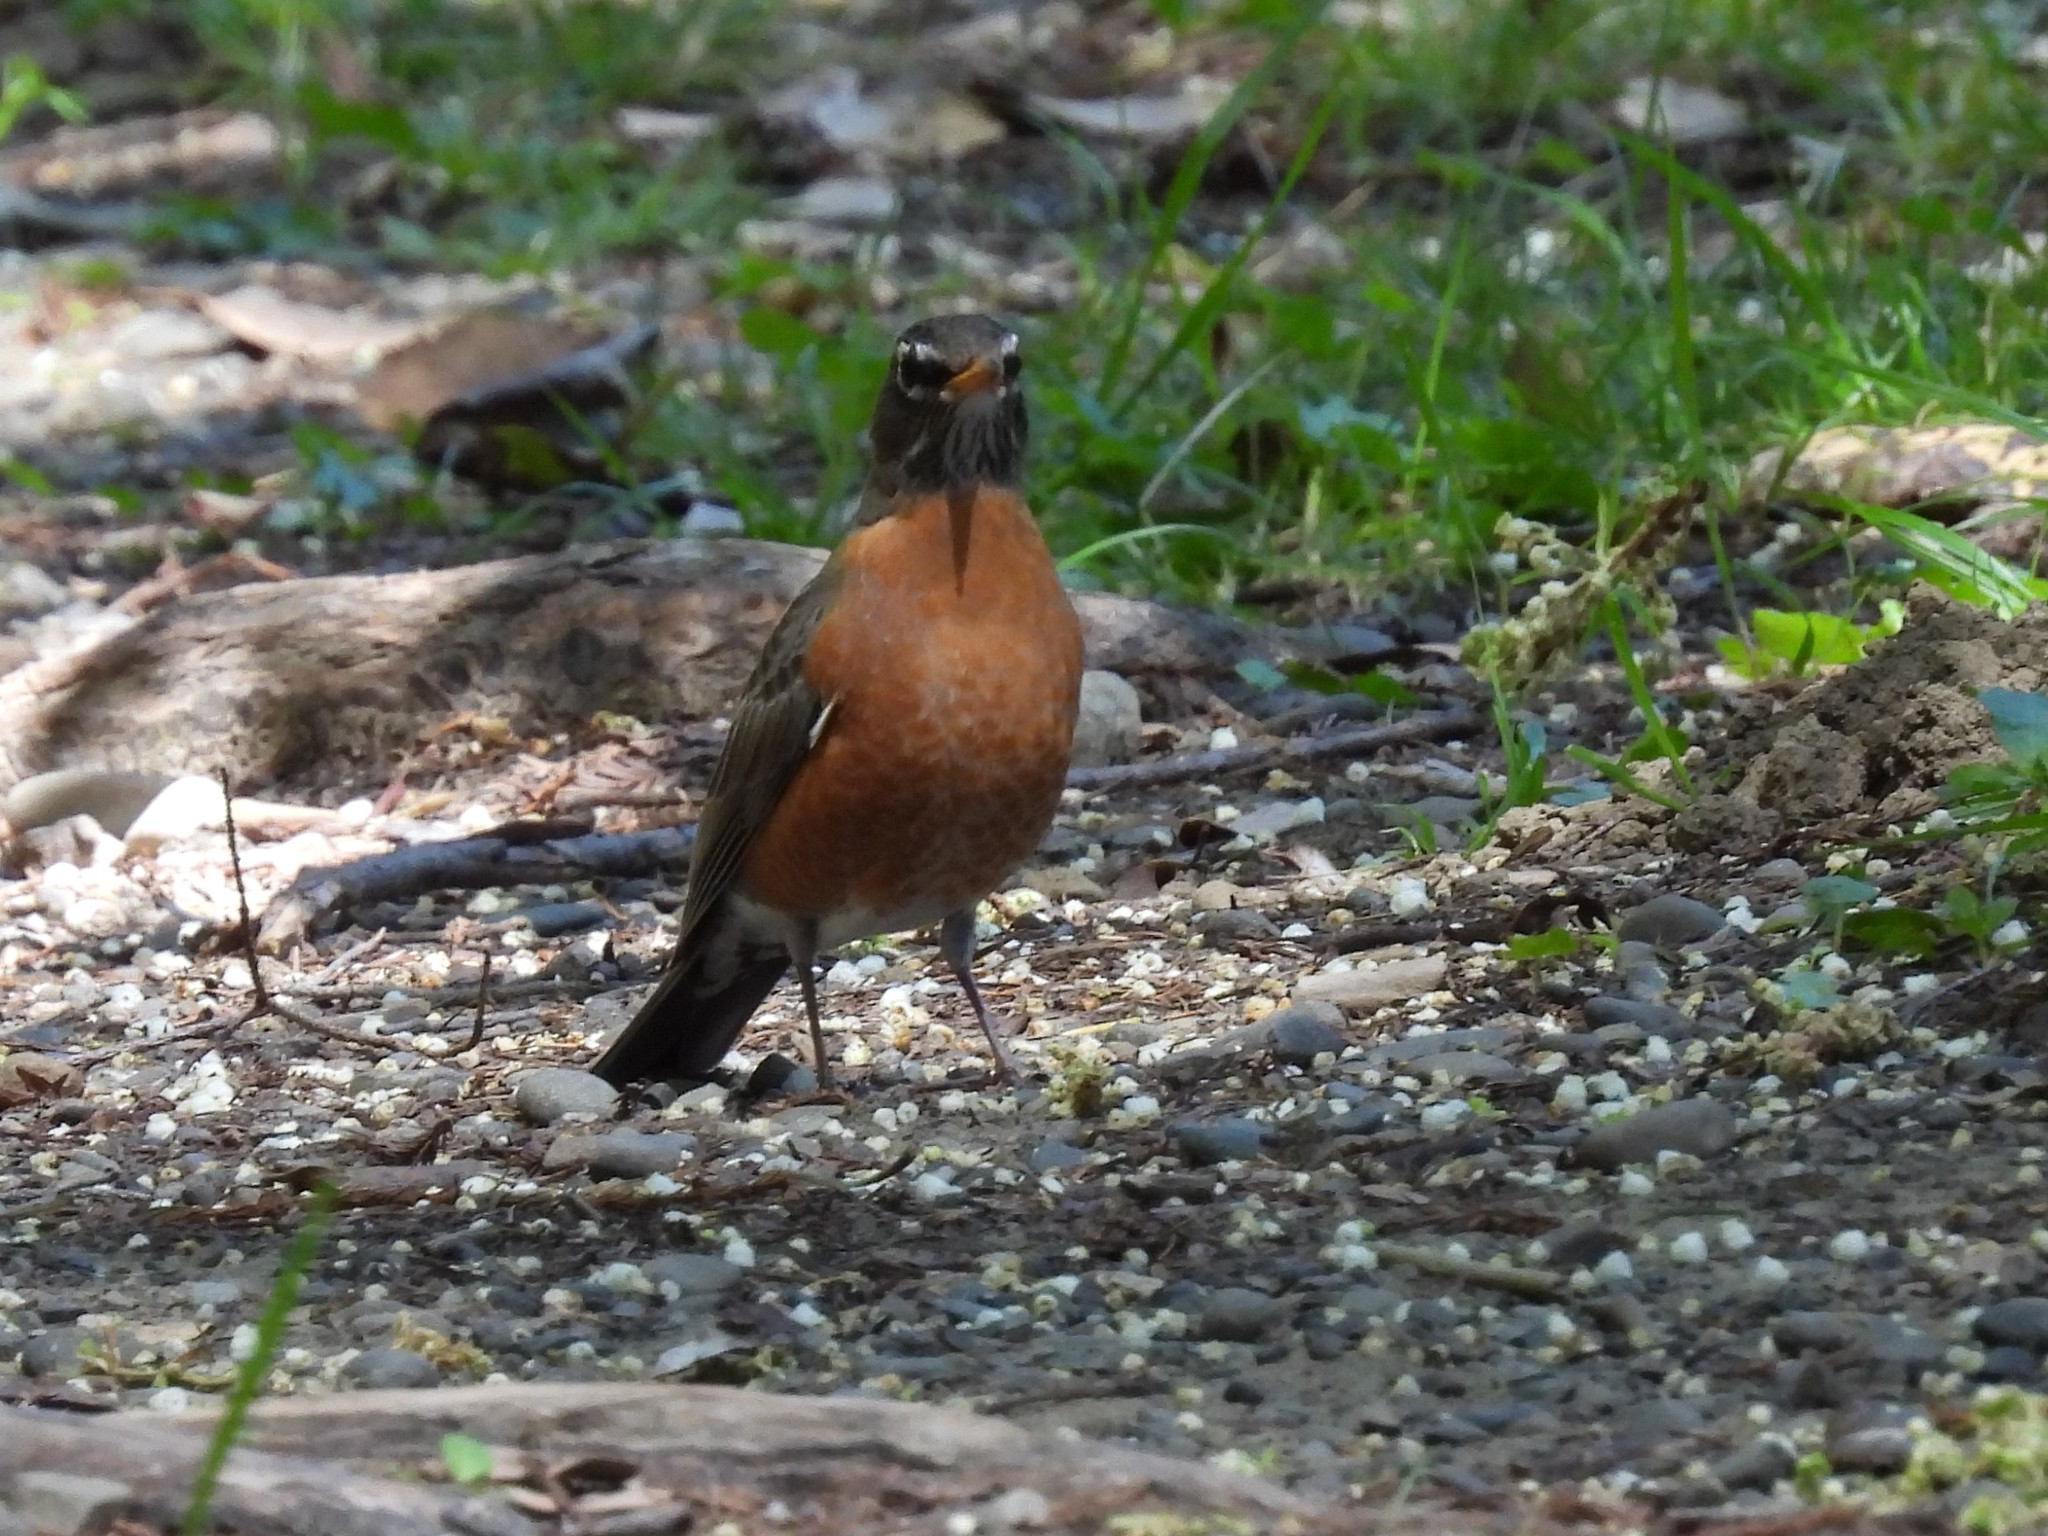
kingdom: Animalia
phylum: Chordata
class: Aves
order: Passeriformes
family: Turdidae
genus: Turdus
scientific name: Turdus migratorius
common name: American robin
